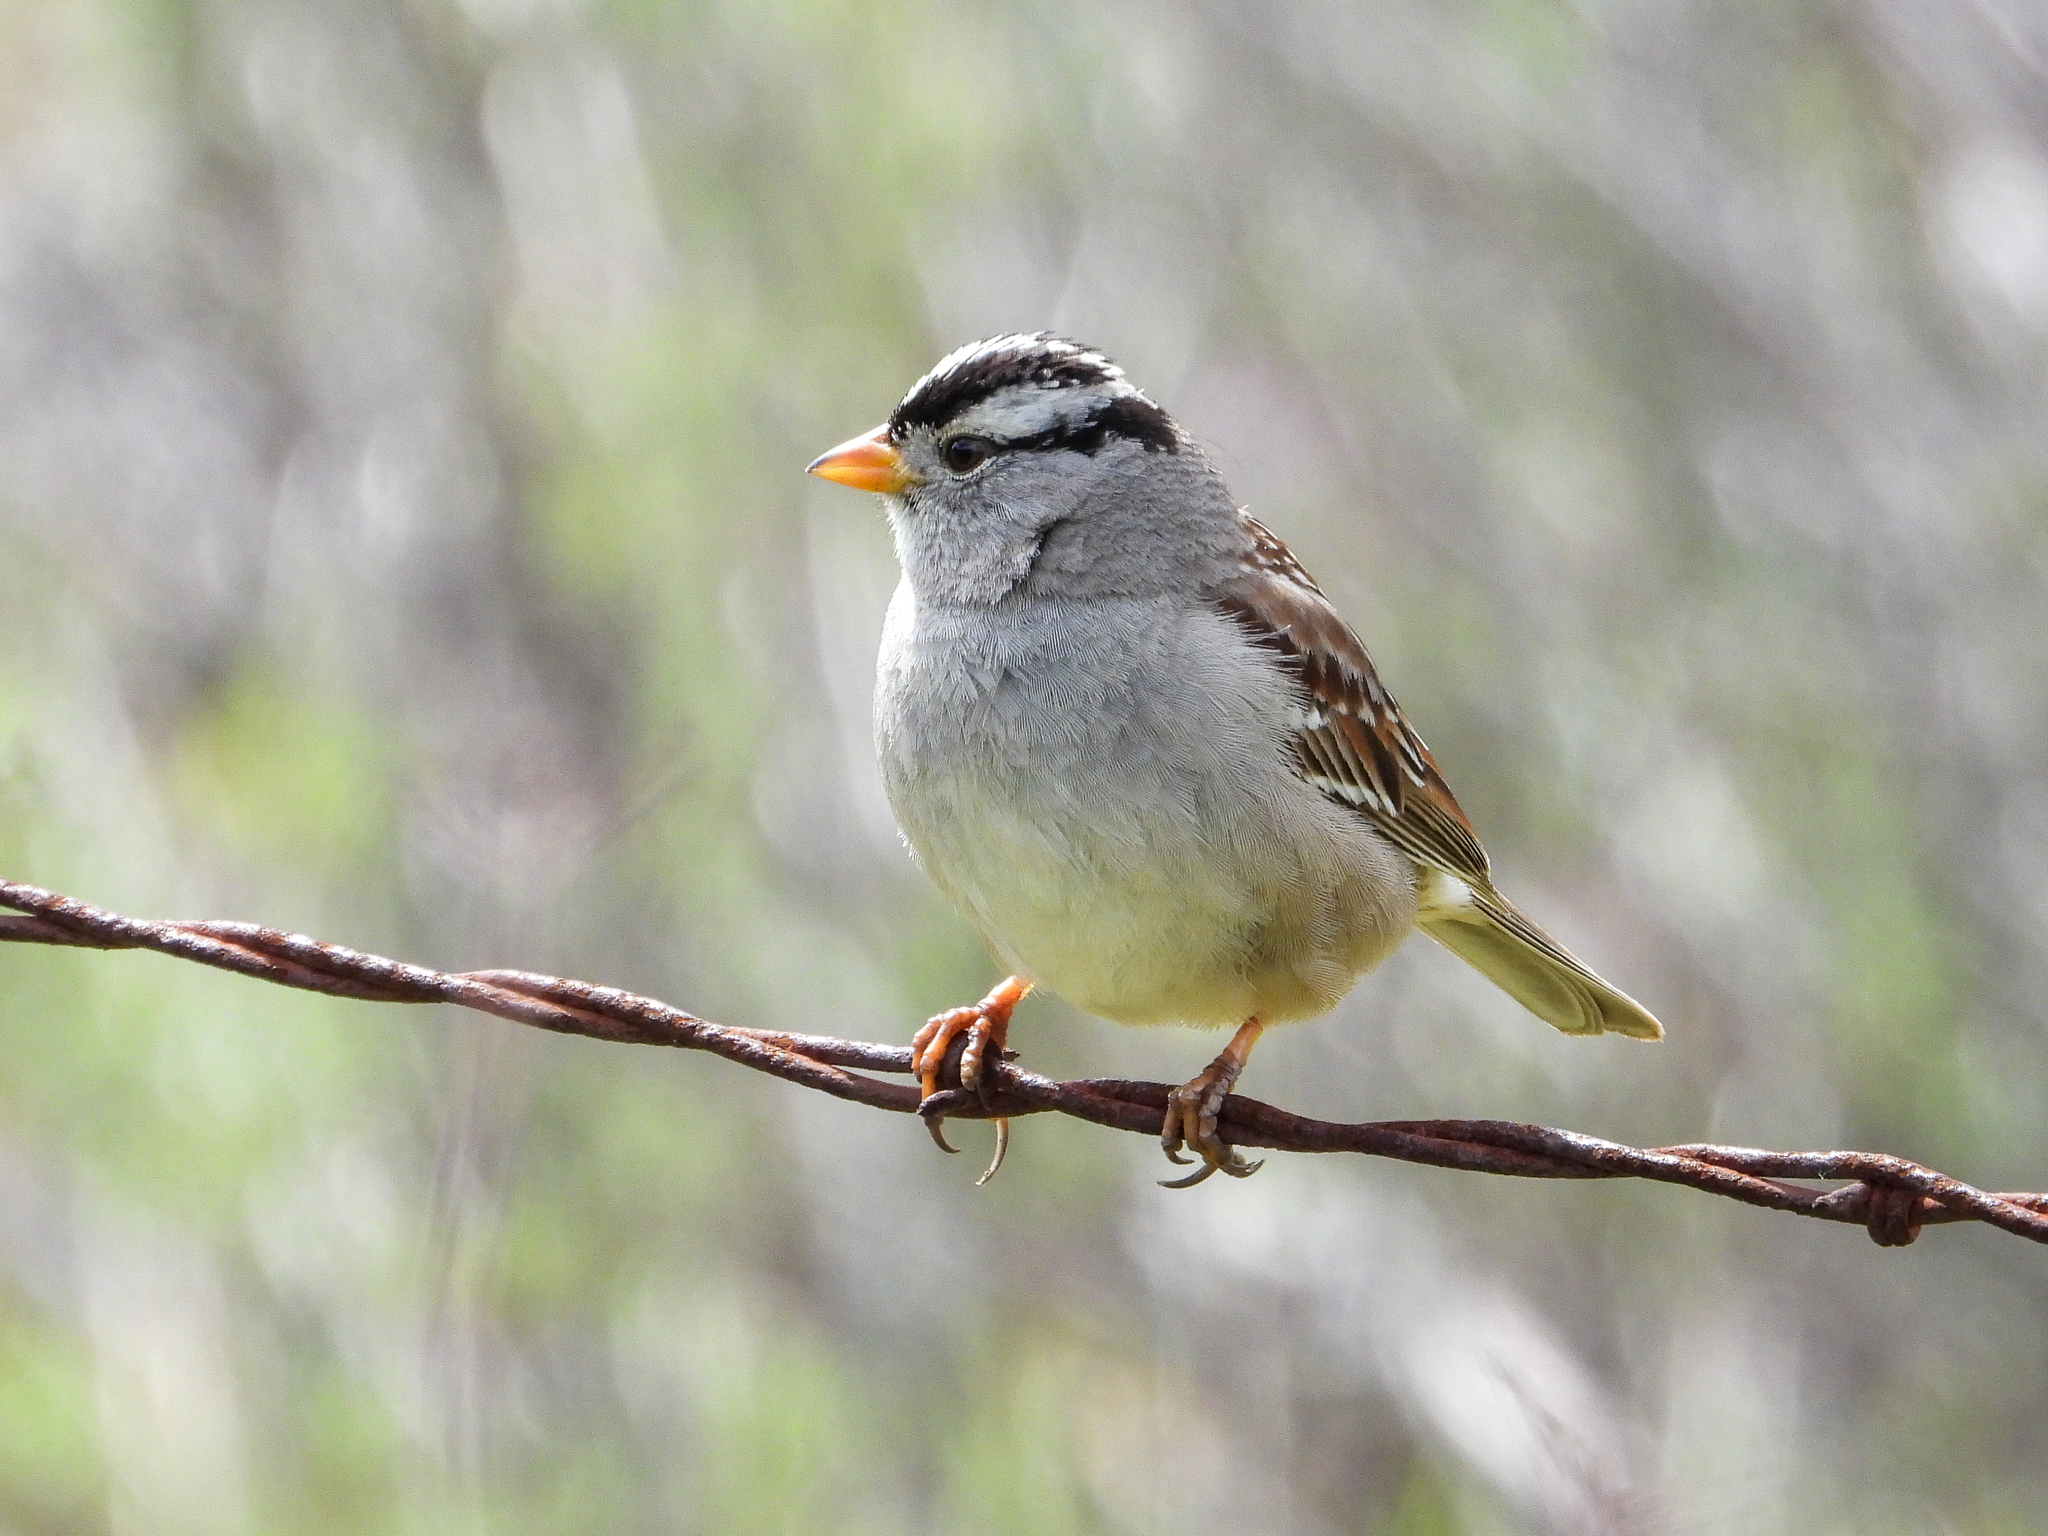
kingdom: Animalia
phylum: Chordata
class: Aves
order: Passeriformes
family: Passerellidae
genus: Zonotrichia
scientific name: Zonotrichia leucophrys
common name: White-crowned sparrow
